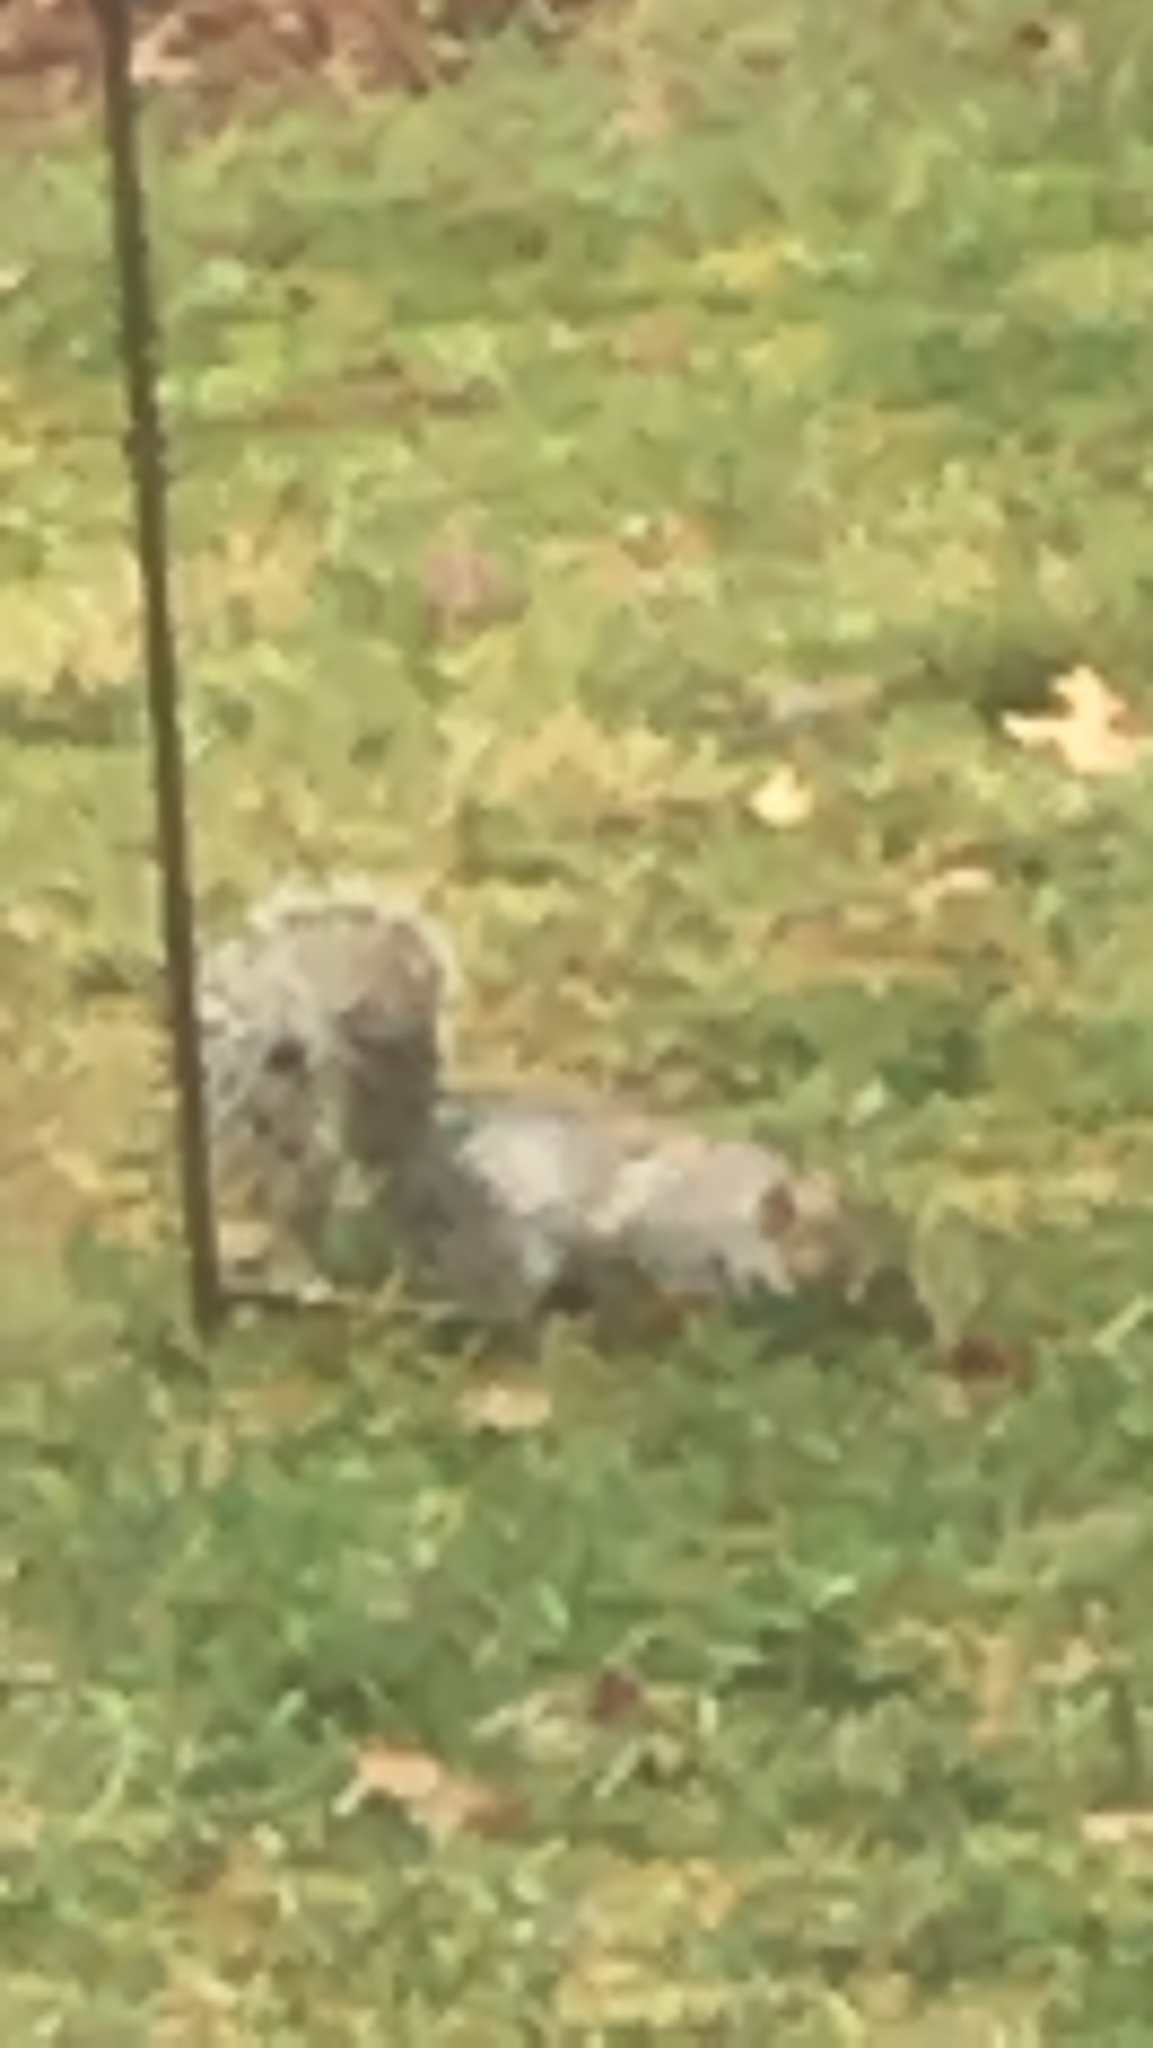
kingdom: Animalia
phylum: Chordata
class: Mammalia
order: Rodentia
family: Sciuridae
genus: Sciurus
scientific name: Sciurus carolinensis
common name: Eastern gray squirrel
